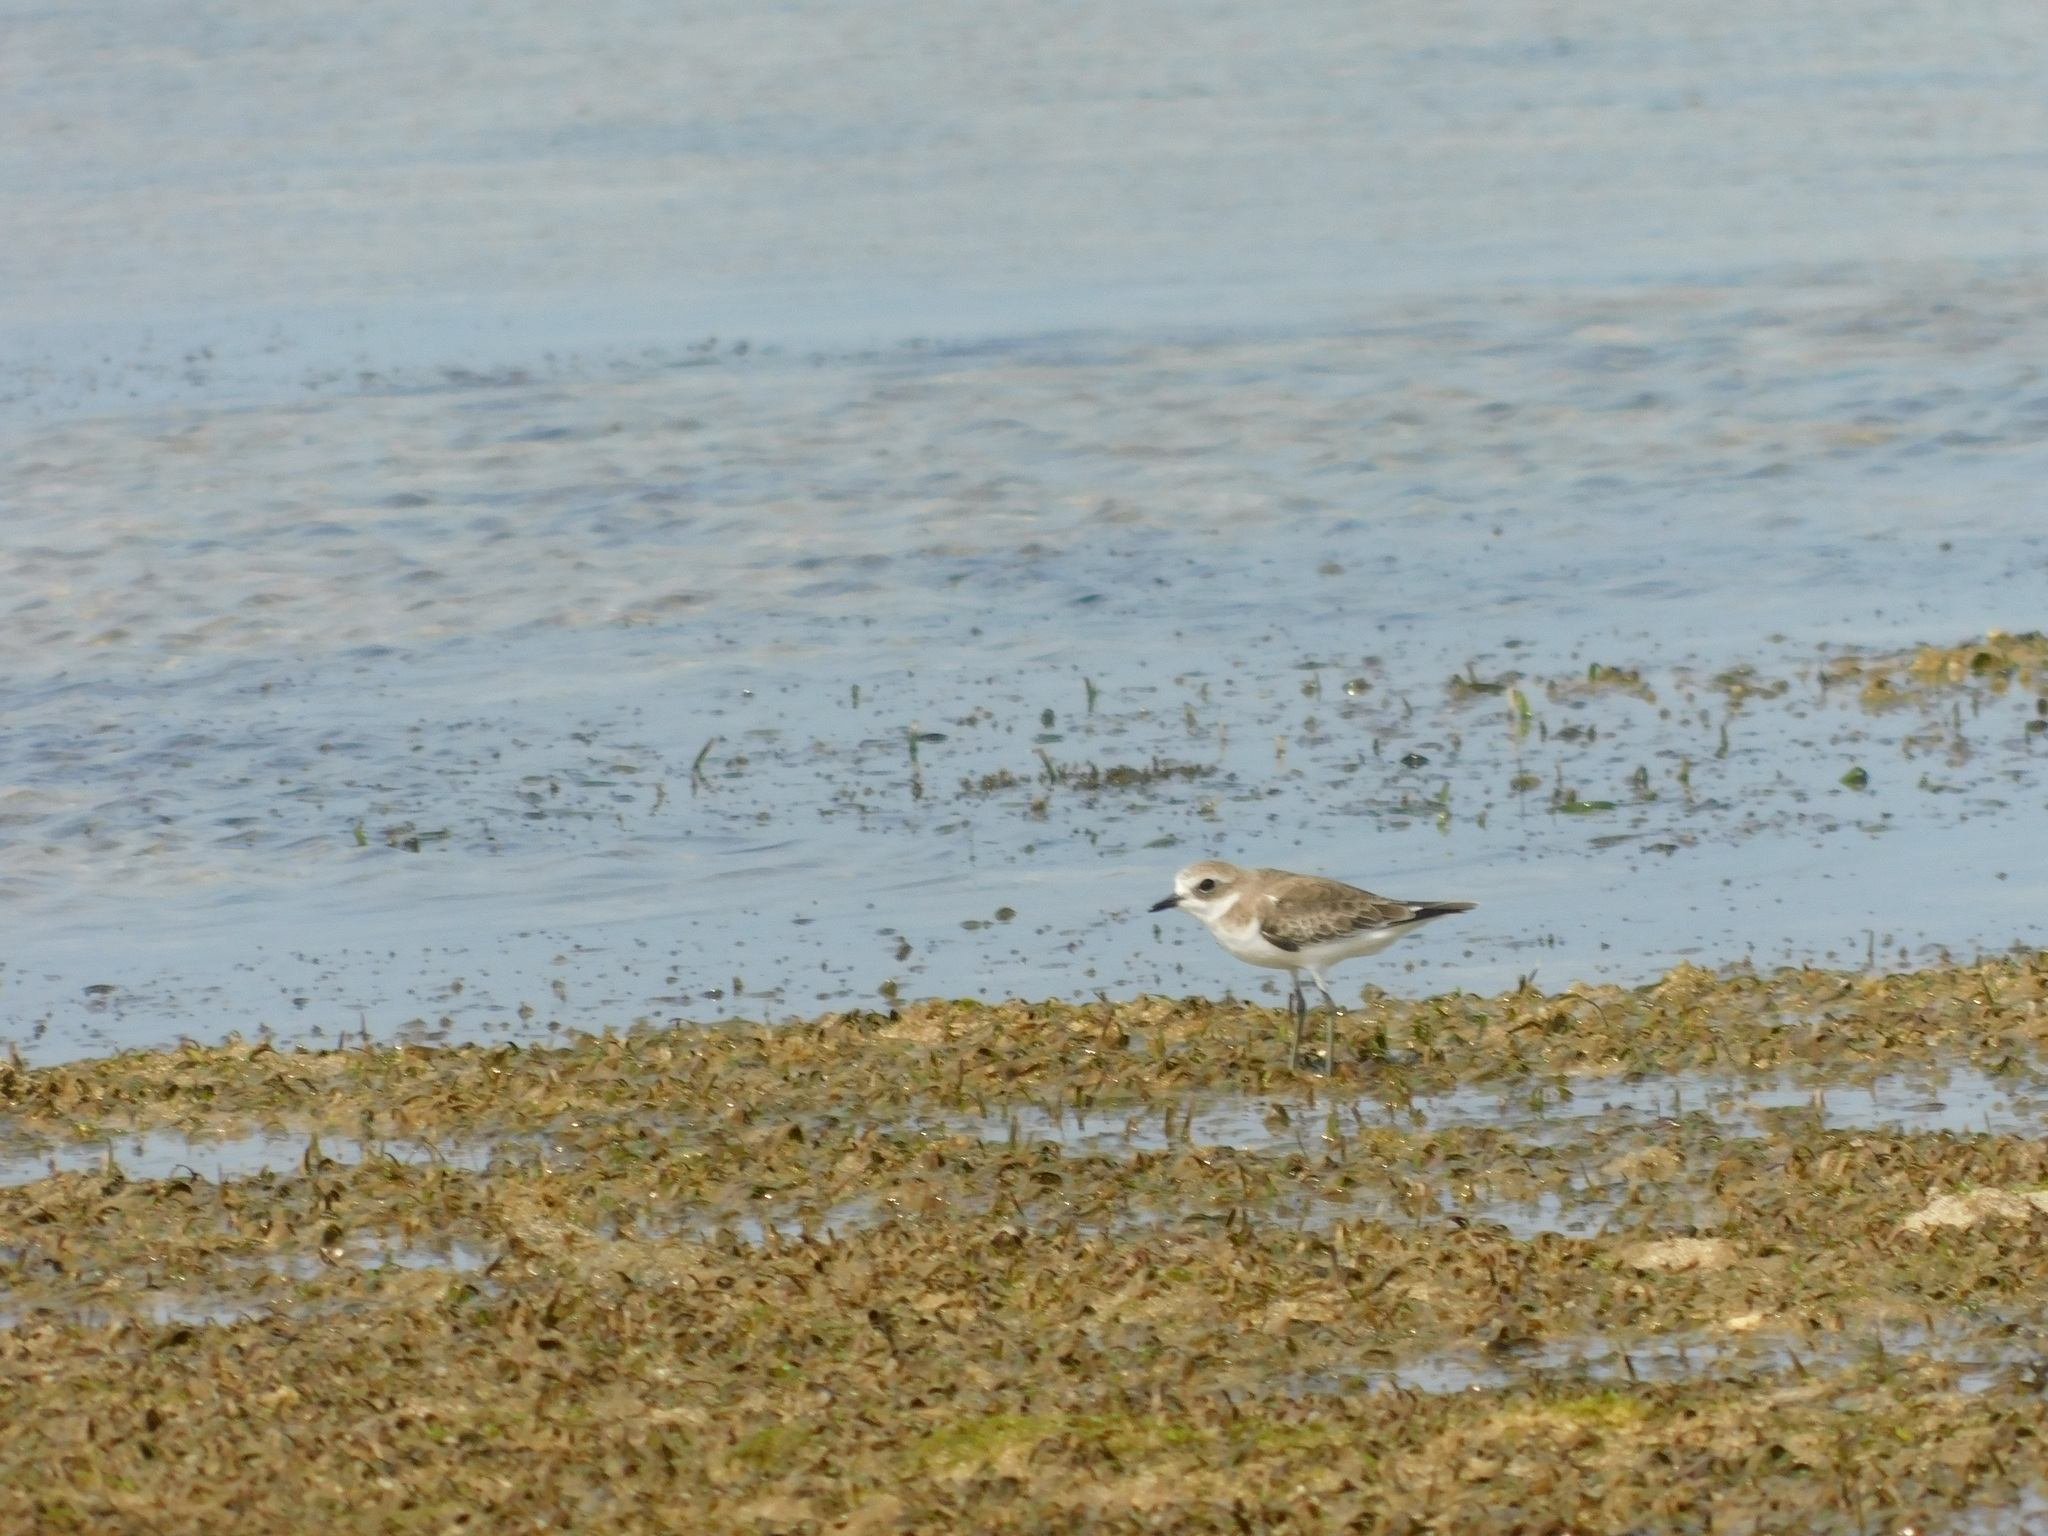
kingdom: Animalia
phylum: Chordata
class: Aves
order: Charadriiformes
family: Charadriidae
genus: Charadrius
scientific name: Charadrius leschenaultii
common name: Greater sand plover
